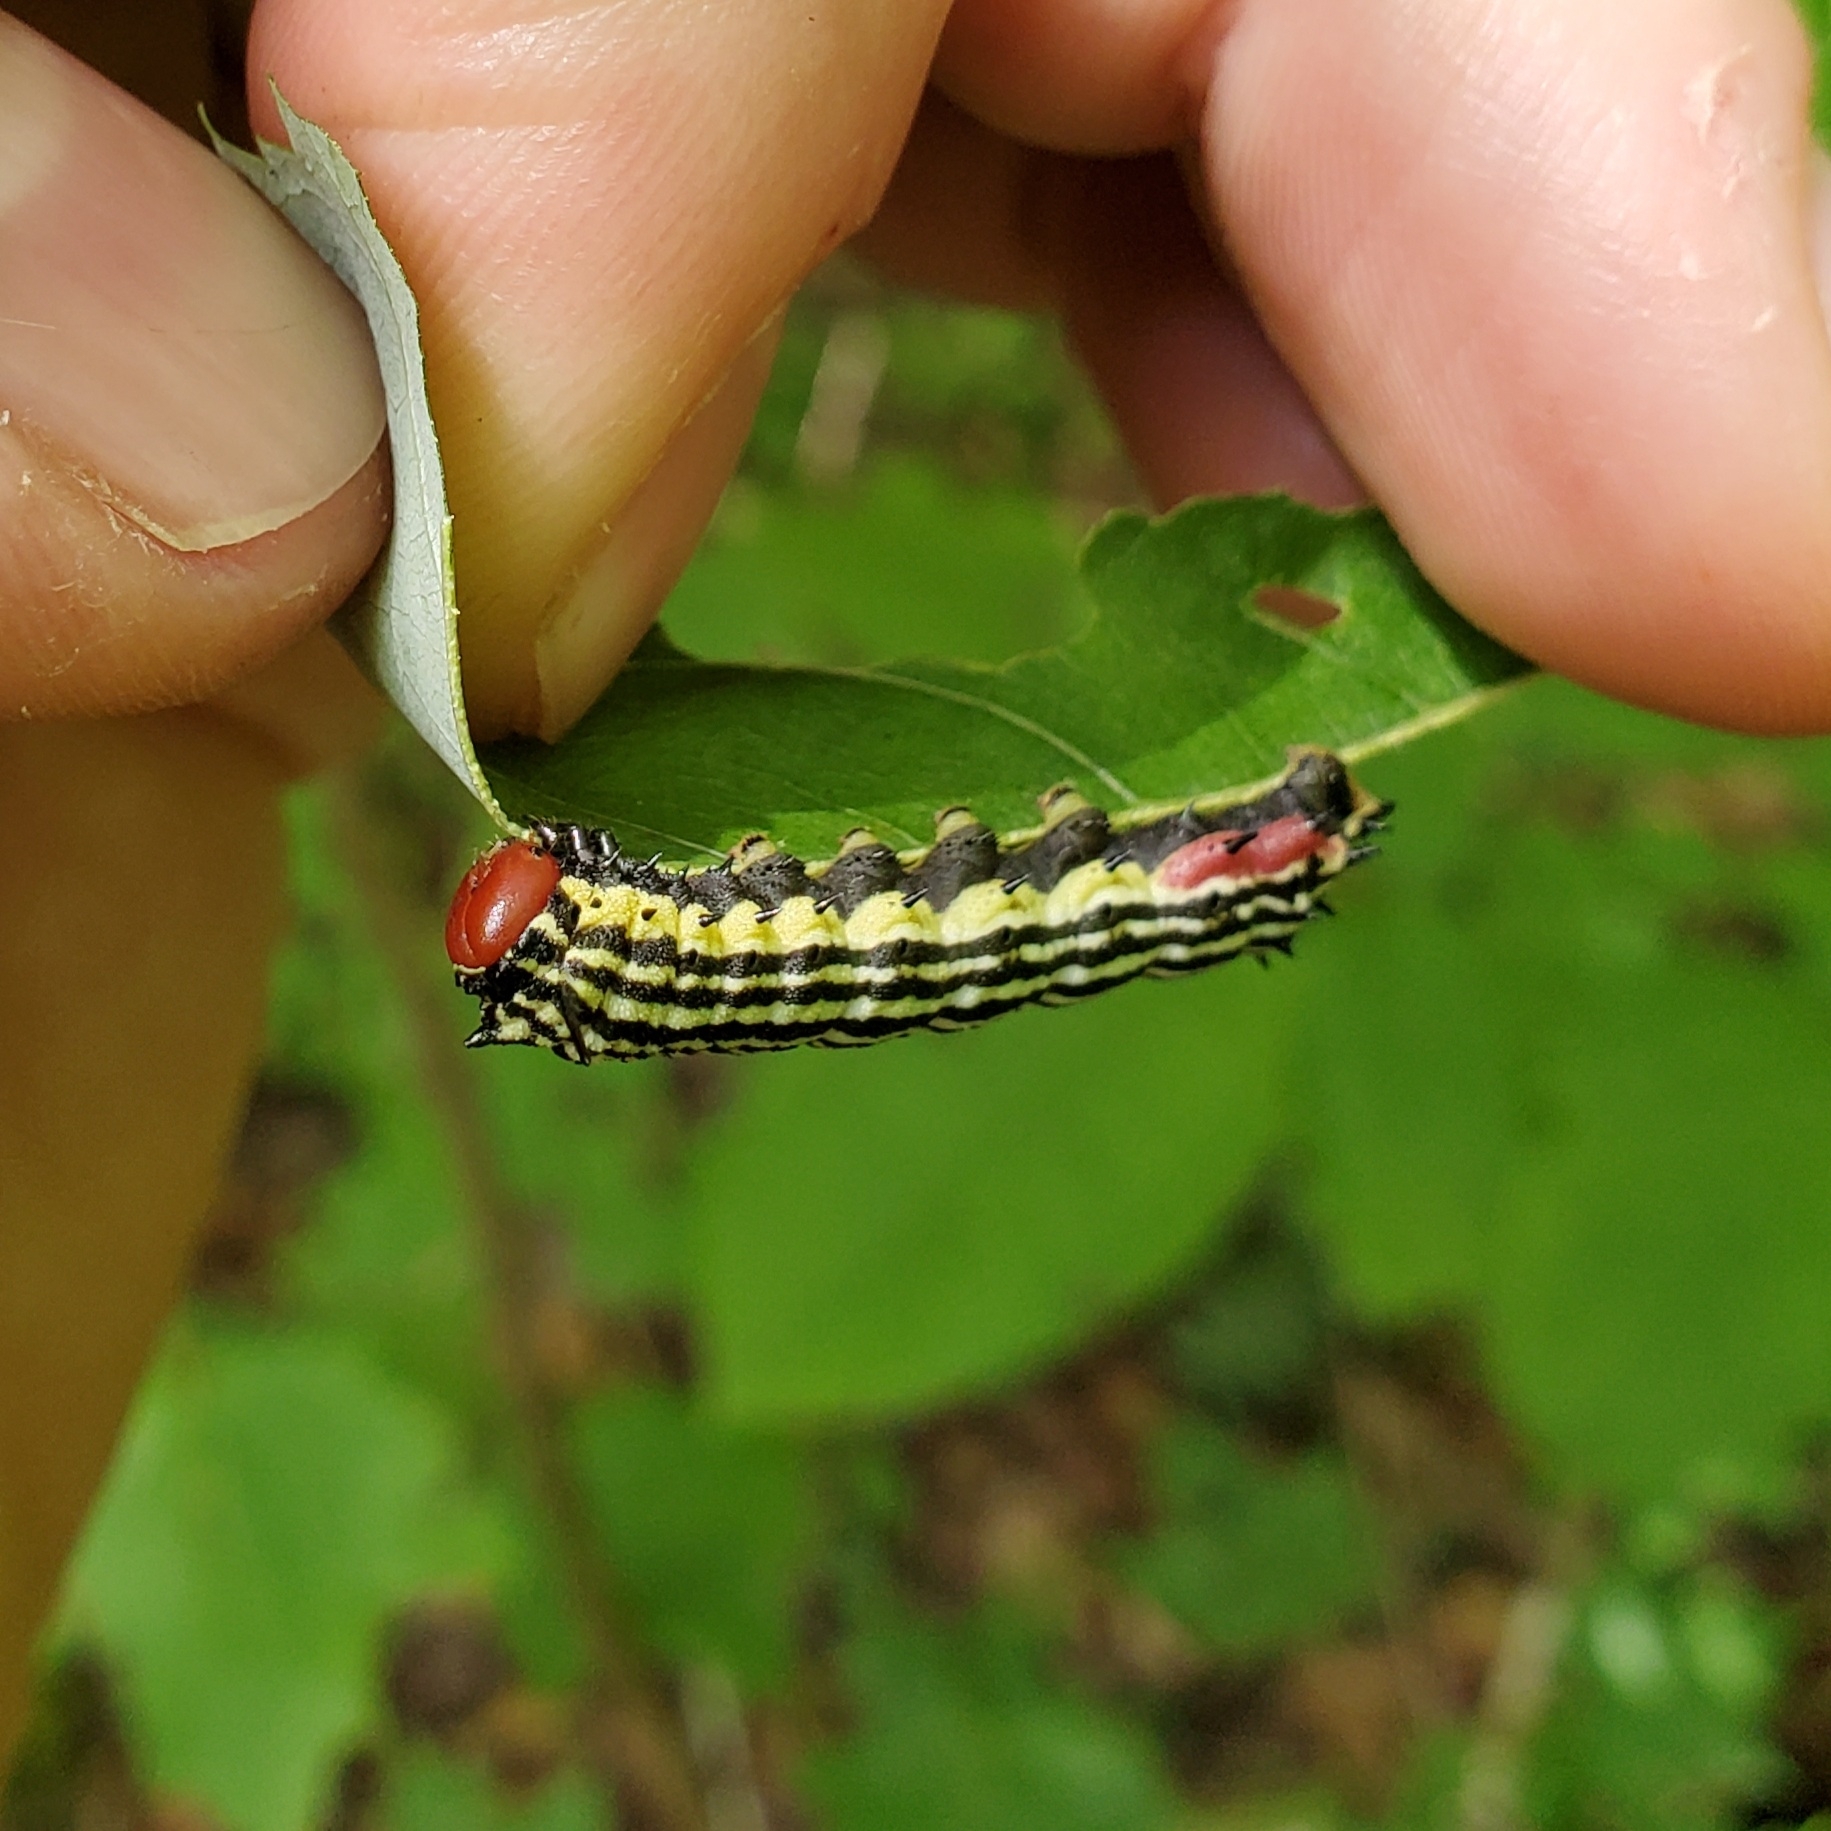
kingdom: Animalia
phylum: Arthropoda
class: Insecta
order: Lepidoptera
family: Saturniidae
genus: Dryocampa
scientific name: Dryocampa rubicunda
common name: Rosy maple moth
